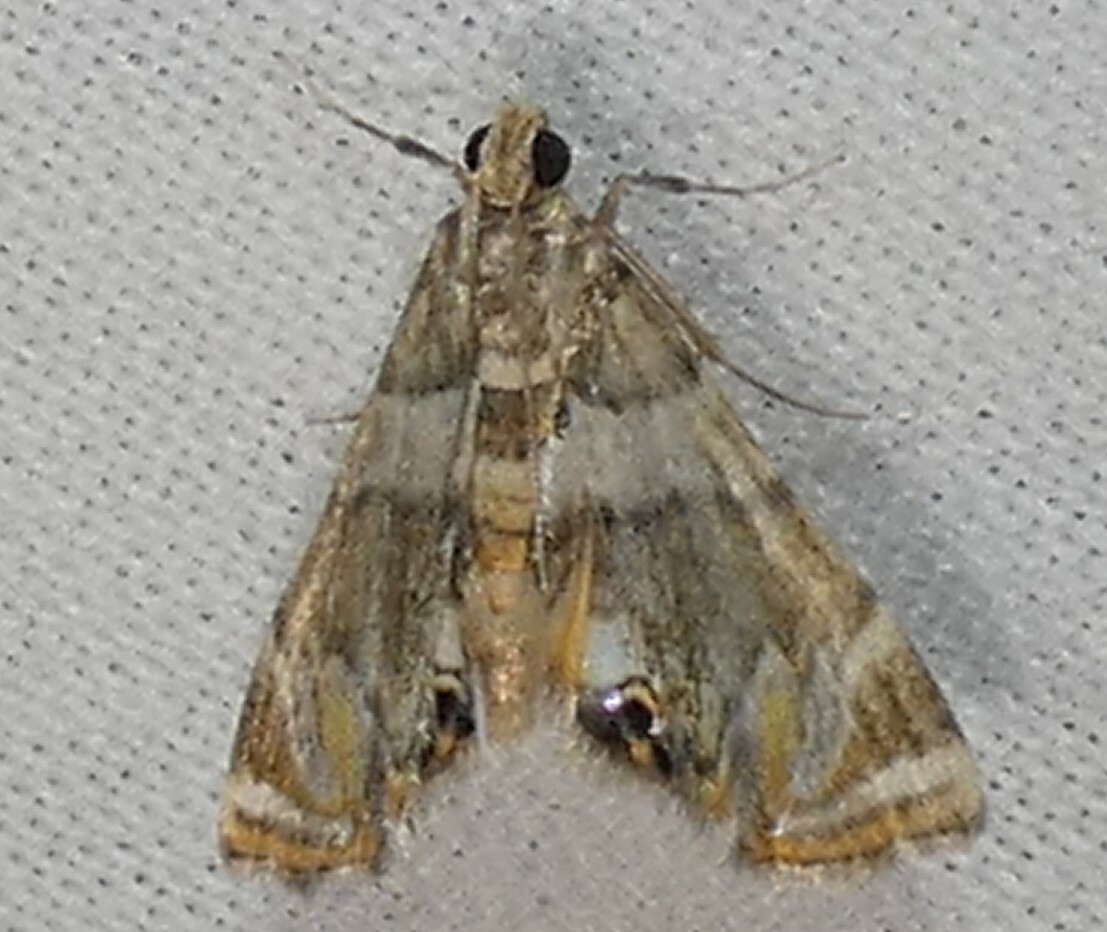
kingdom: Animalia
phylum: Arthropoda
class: Insecta
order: Lepidoptera
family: Crambidae
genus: Neargyractis
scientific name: Neargyractis slossonalis
